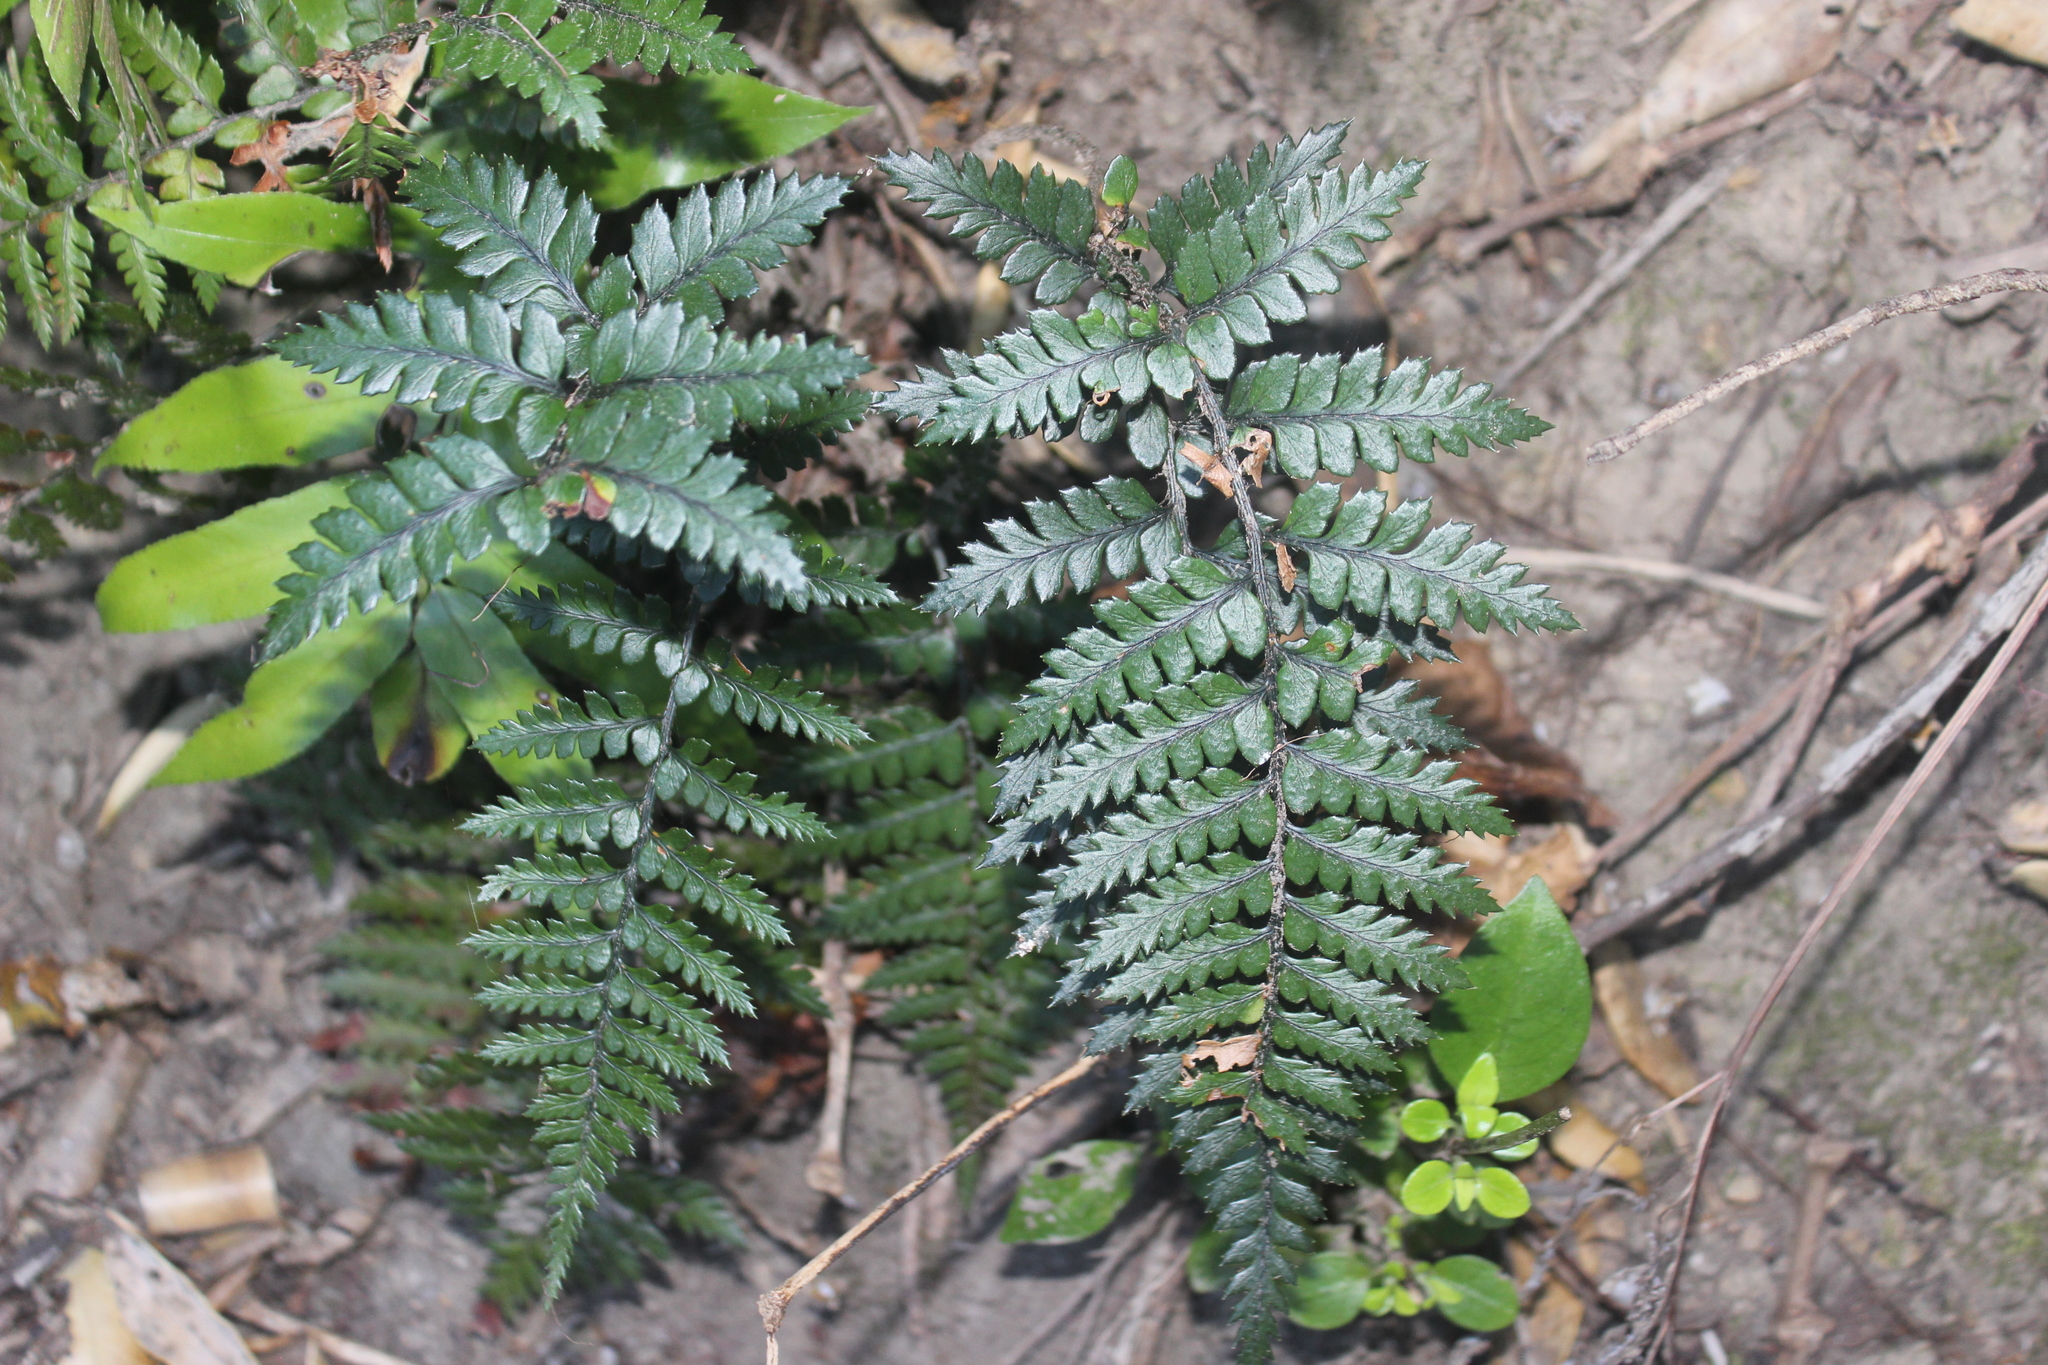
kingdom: Plantae
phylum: Tracheophyta
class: Polypodiopsida
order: Polypodiales
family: Dryopteridaceae
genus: Polystichum
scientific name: Polystichum neozelandicum
